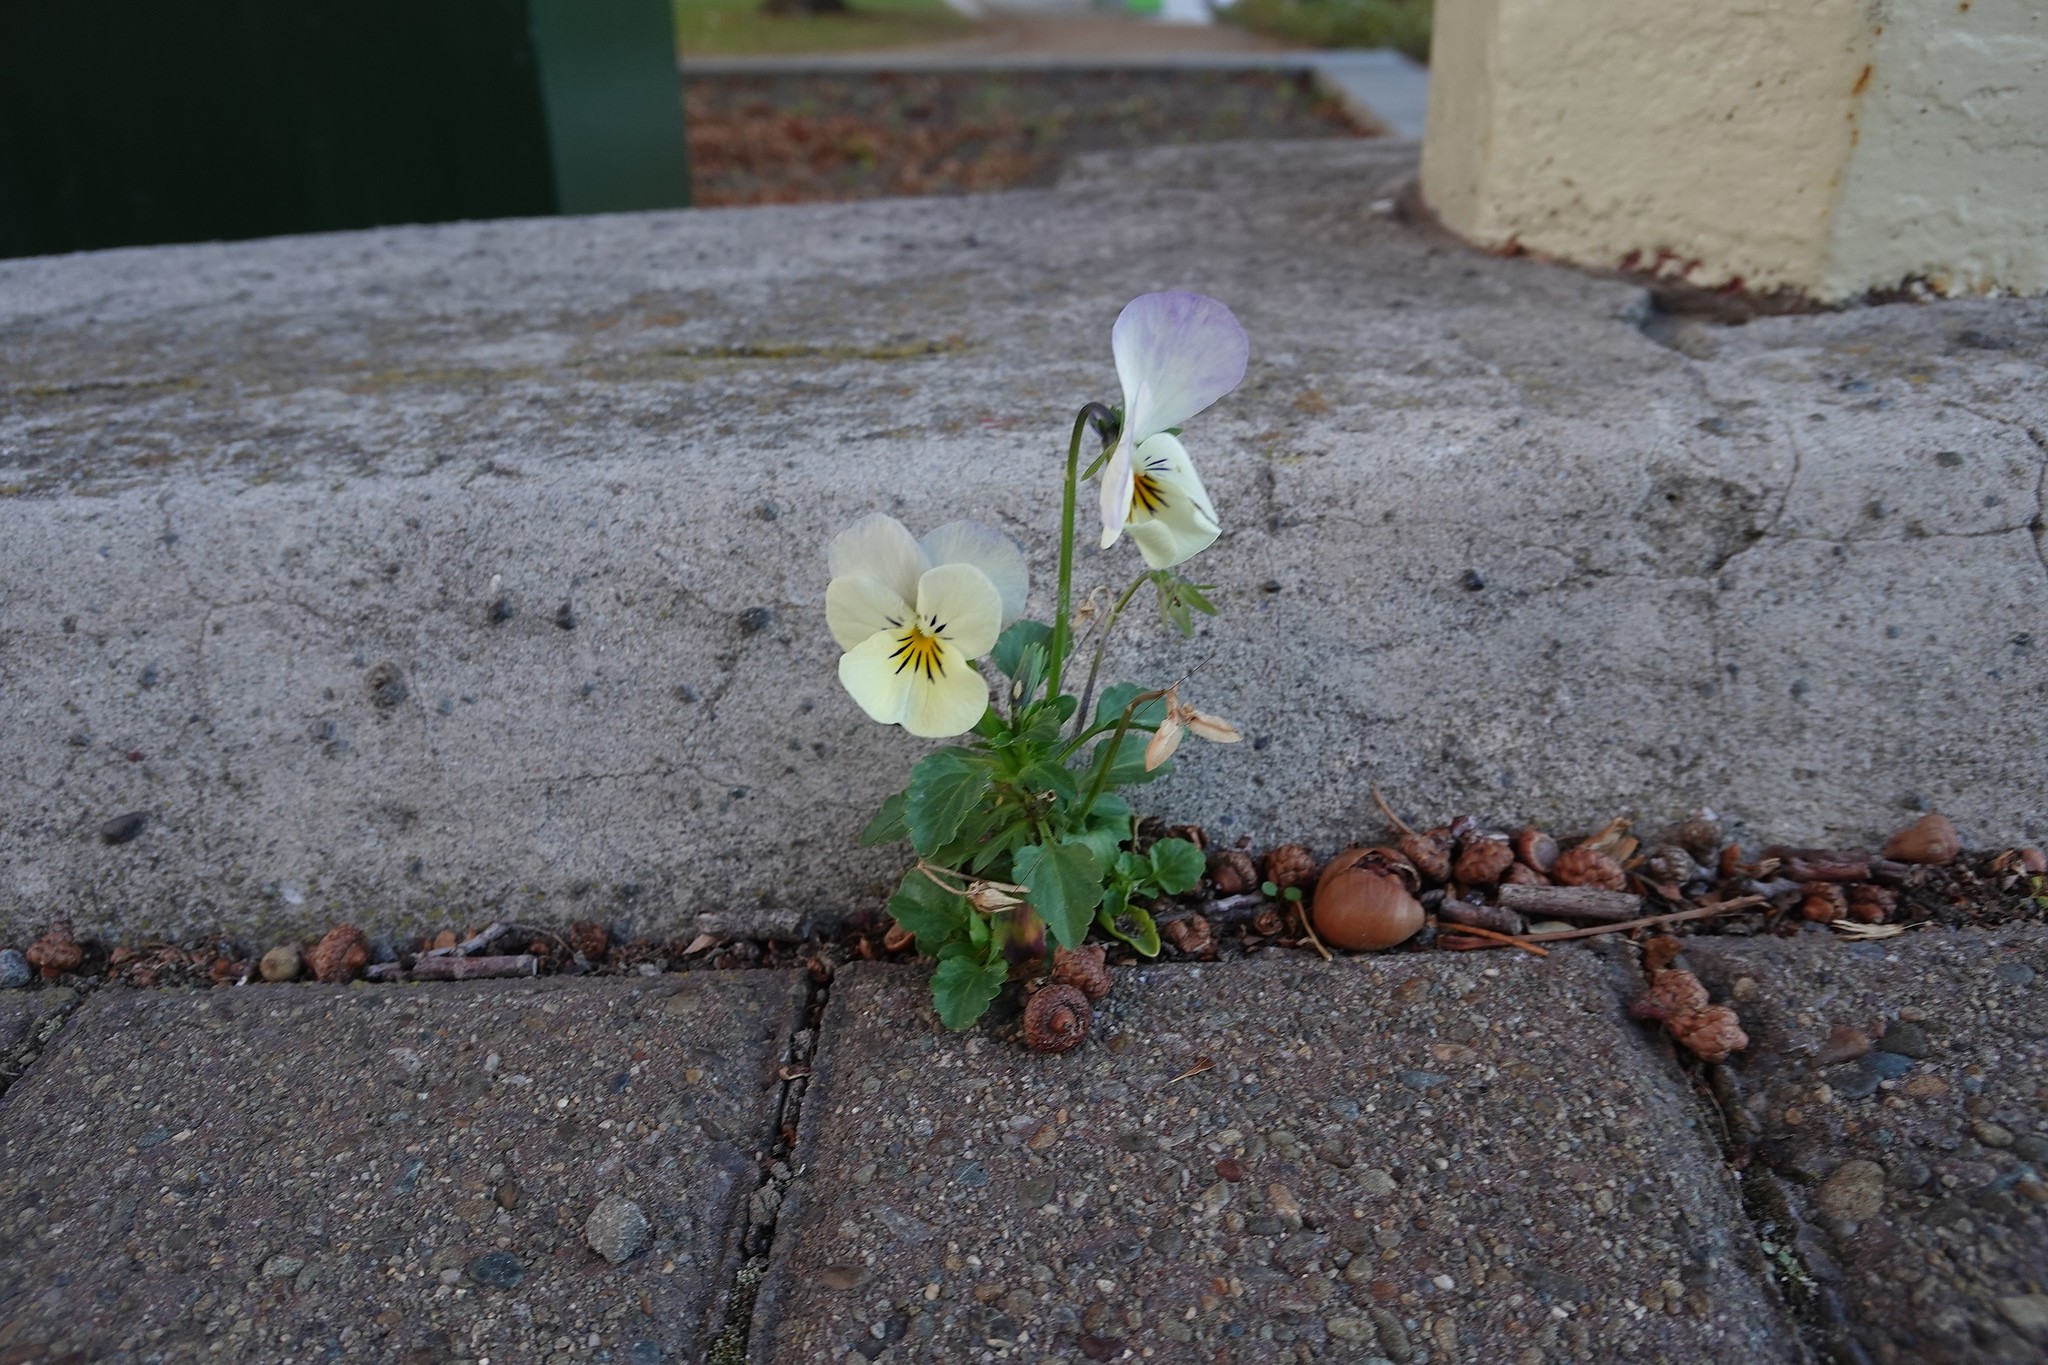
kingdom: Plantae
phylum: Tracheophyta
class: Magnoliopsida
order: Malpighiales
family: Violaceae
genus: Viola
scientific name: Viola williamsii
